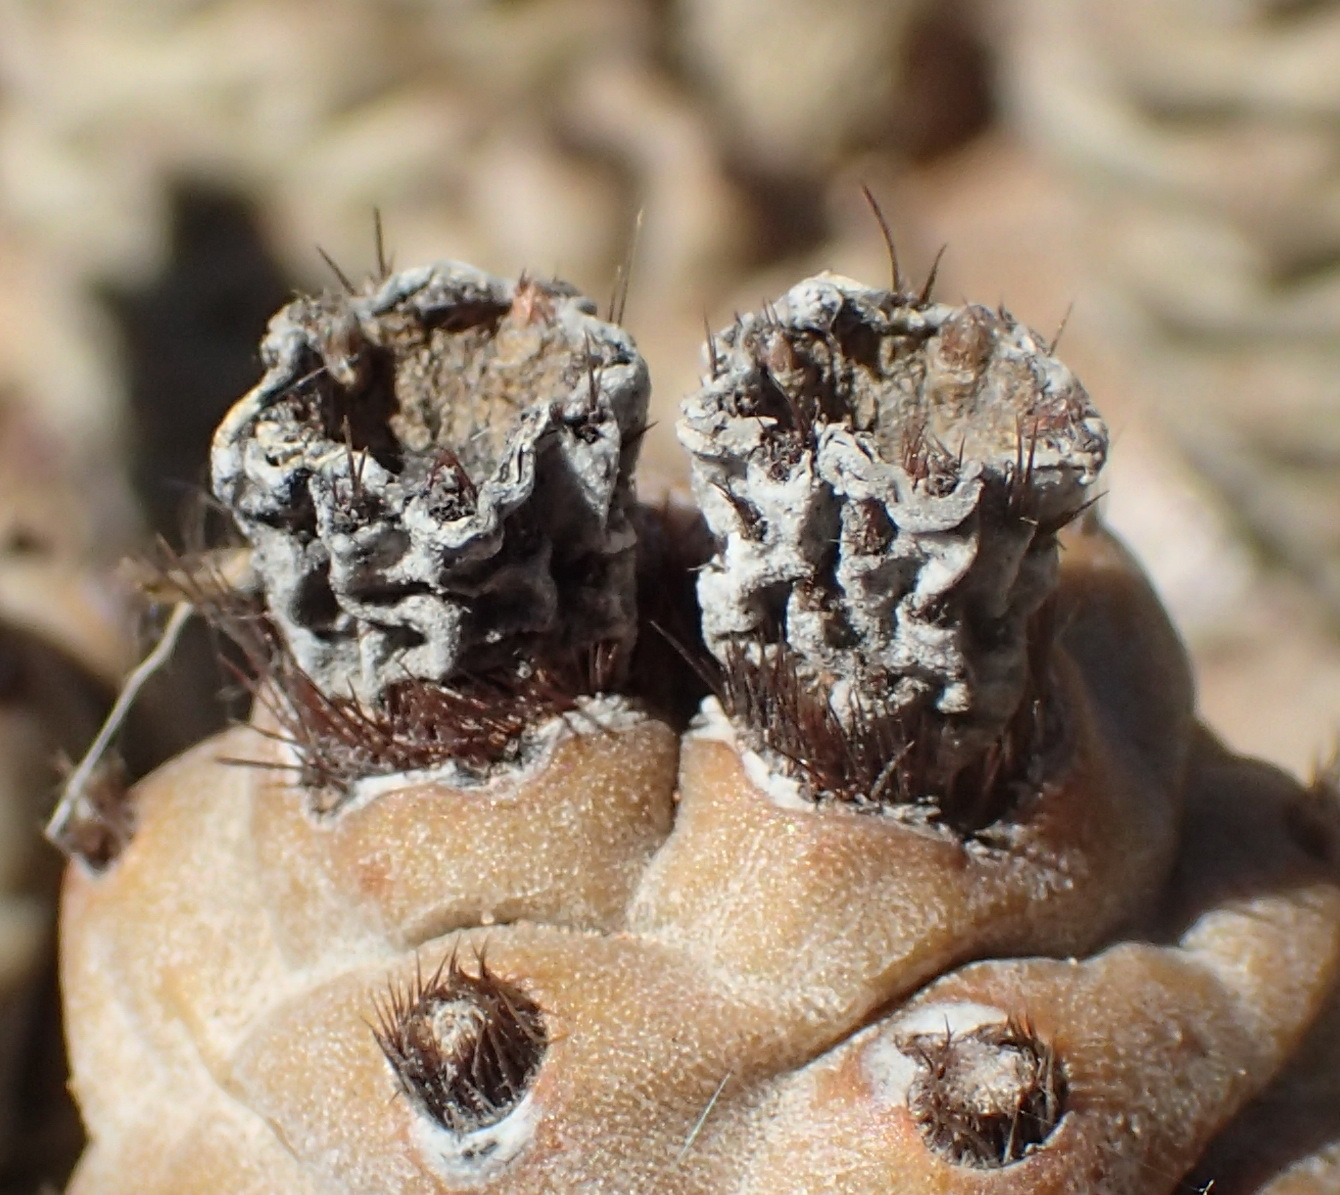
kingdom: Plantae
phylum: Tracheophyta
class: Magnoliopsida
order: Caryophyllales
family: Cactaceae
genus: Tephrocactus
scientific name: Tephrocactus articulatus
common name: Paper cactus
